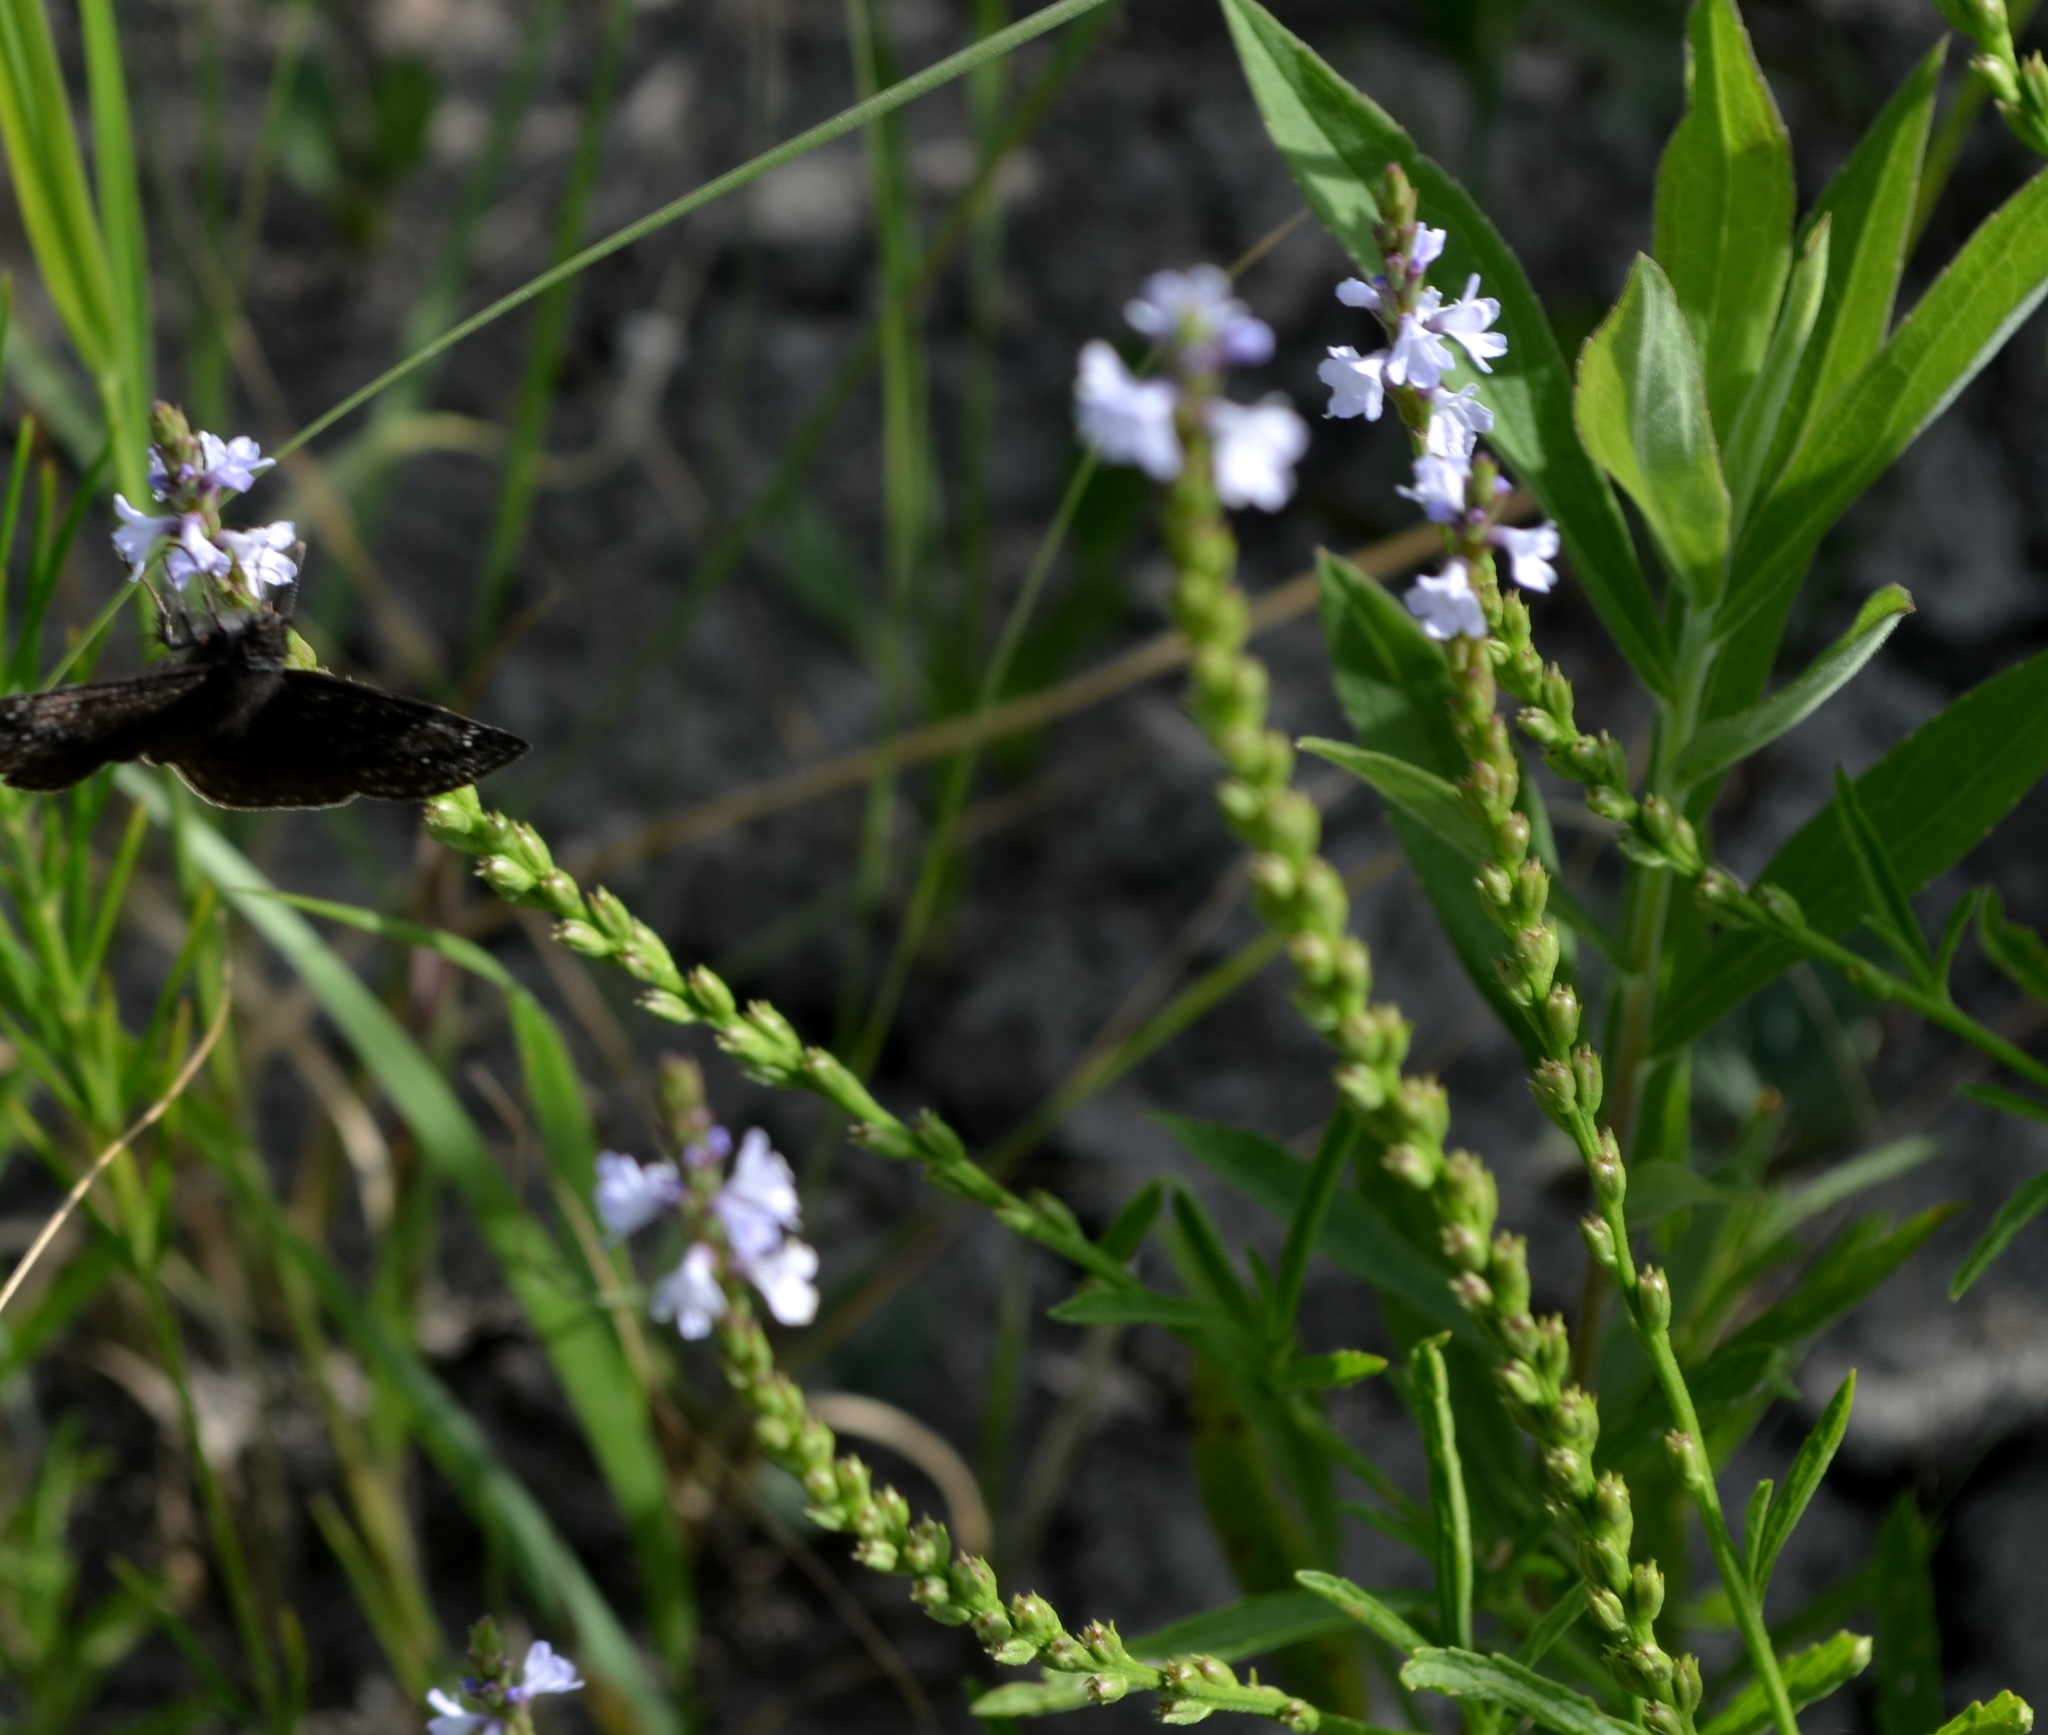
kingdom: Plantae
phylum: Tracheophyta
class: Magnoliopsida
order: Lamiales
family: Verbenaceae
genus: Verbena
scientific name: Verbena simplex
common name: Narrow-leaf vervain
